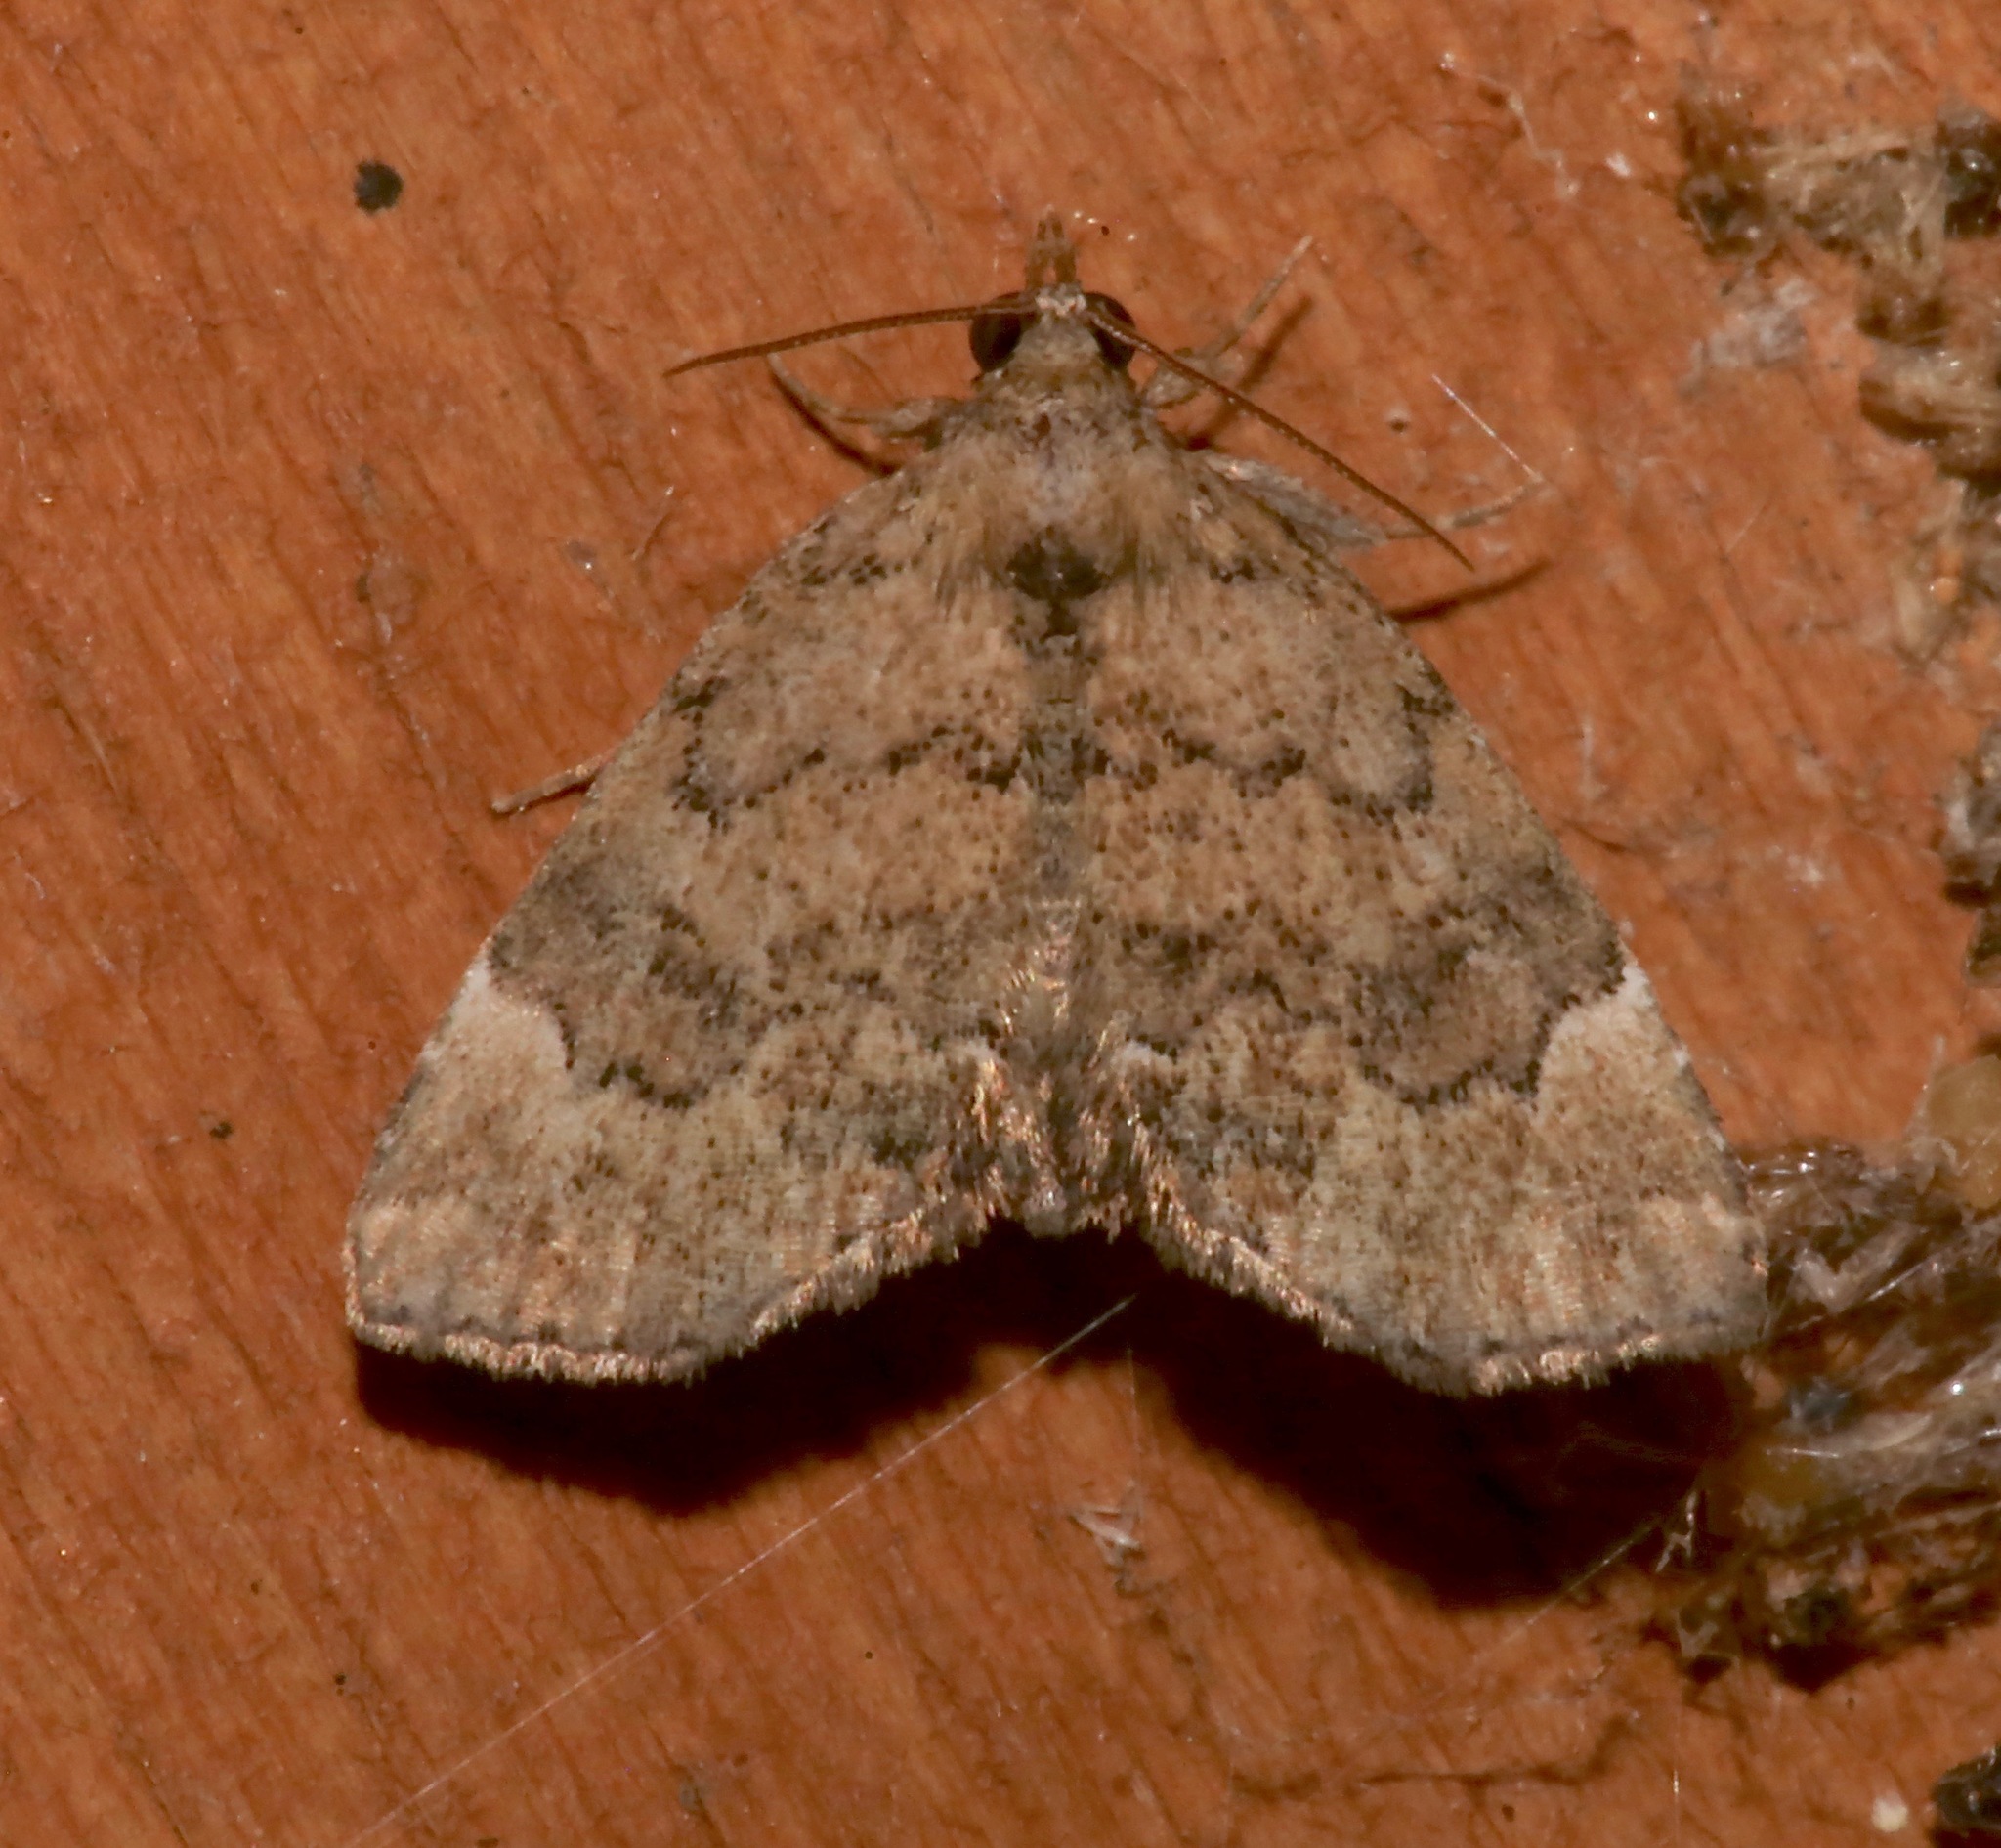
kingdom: Animalia
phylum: Arthropoda
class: Insecta
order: Lepidoptera
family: Erebidae
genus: Cutina
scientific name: Cutina aluticolor
